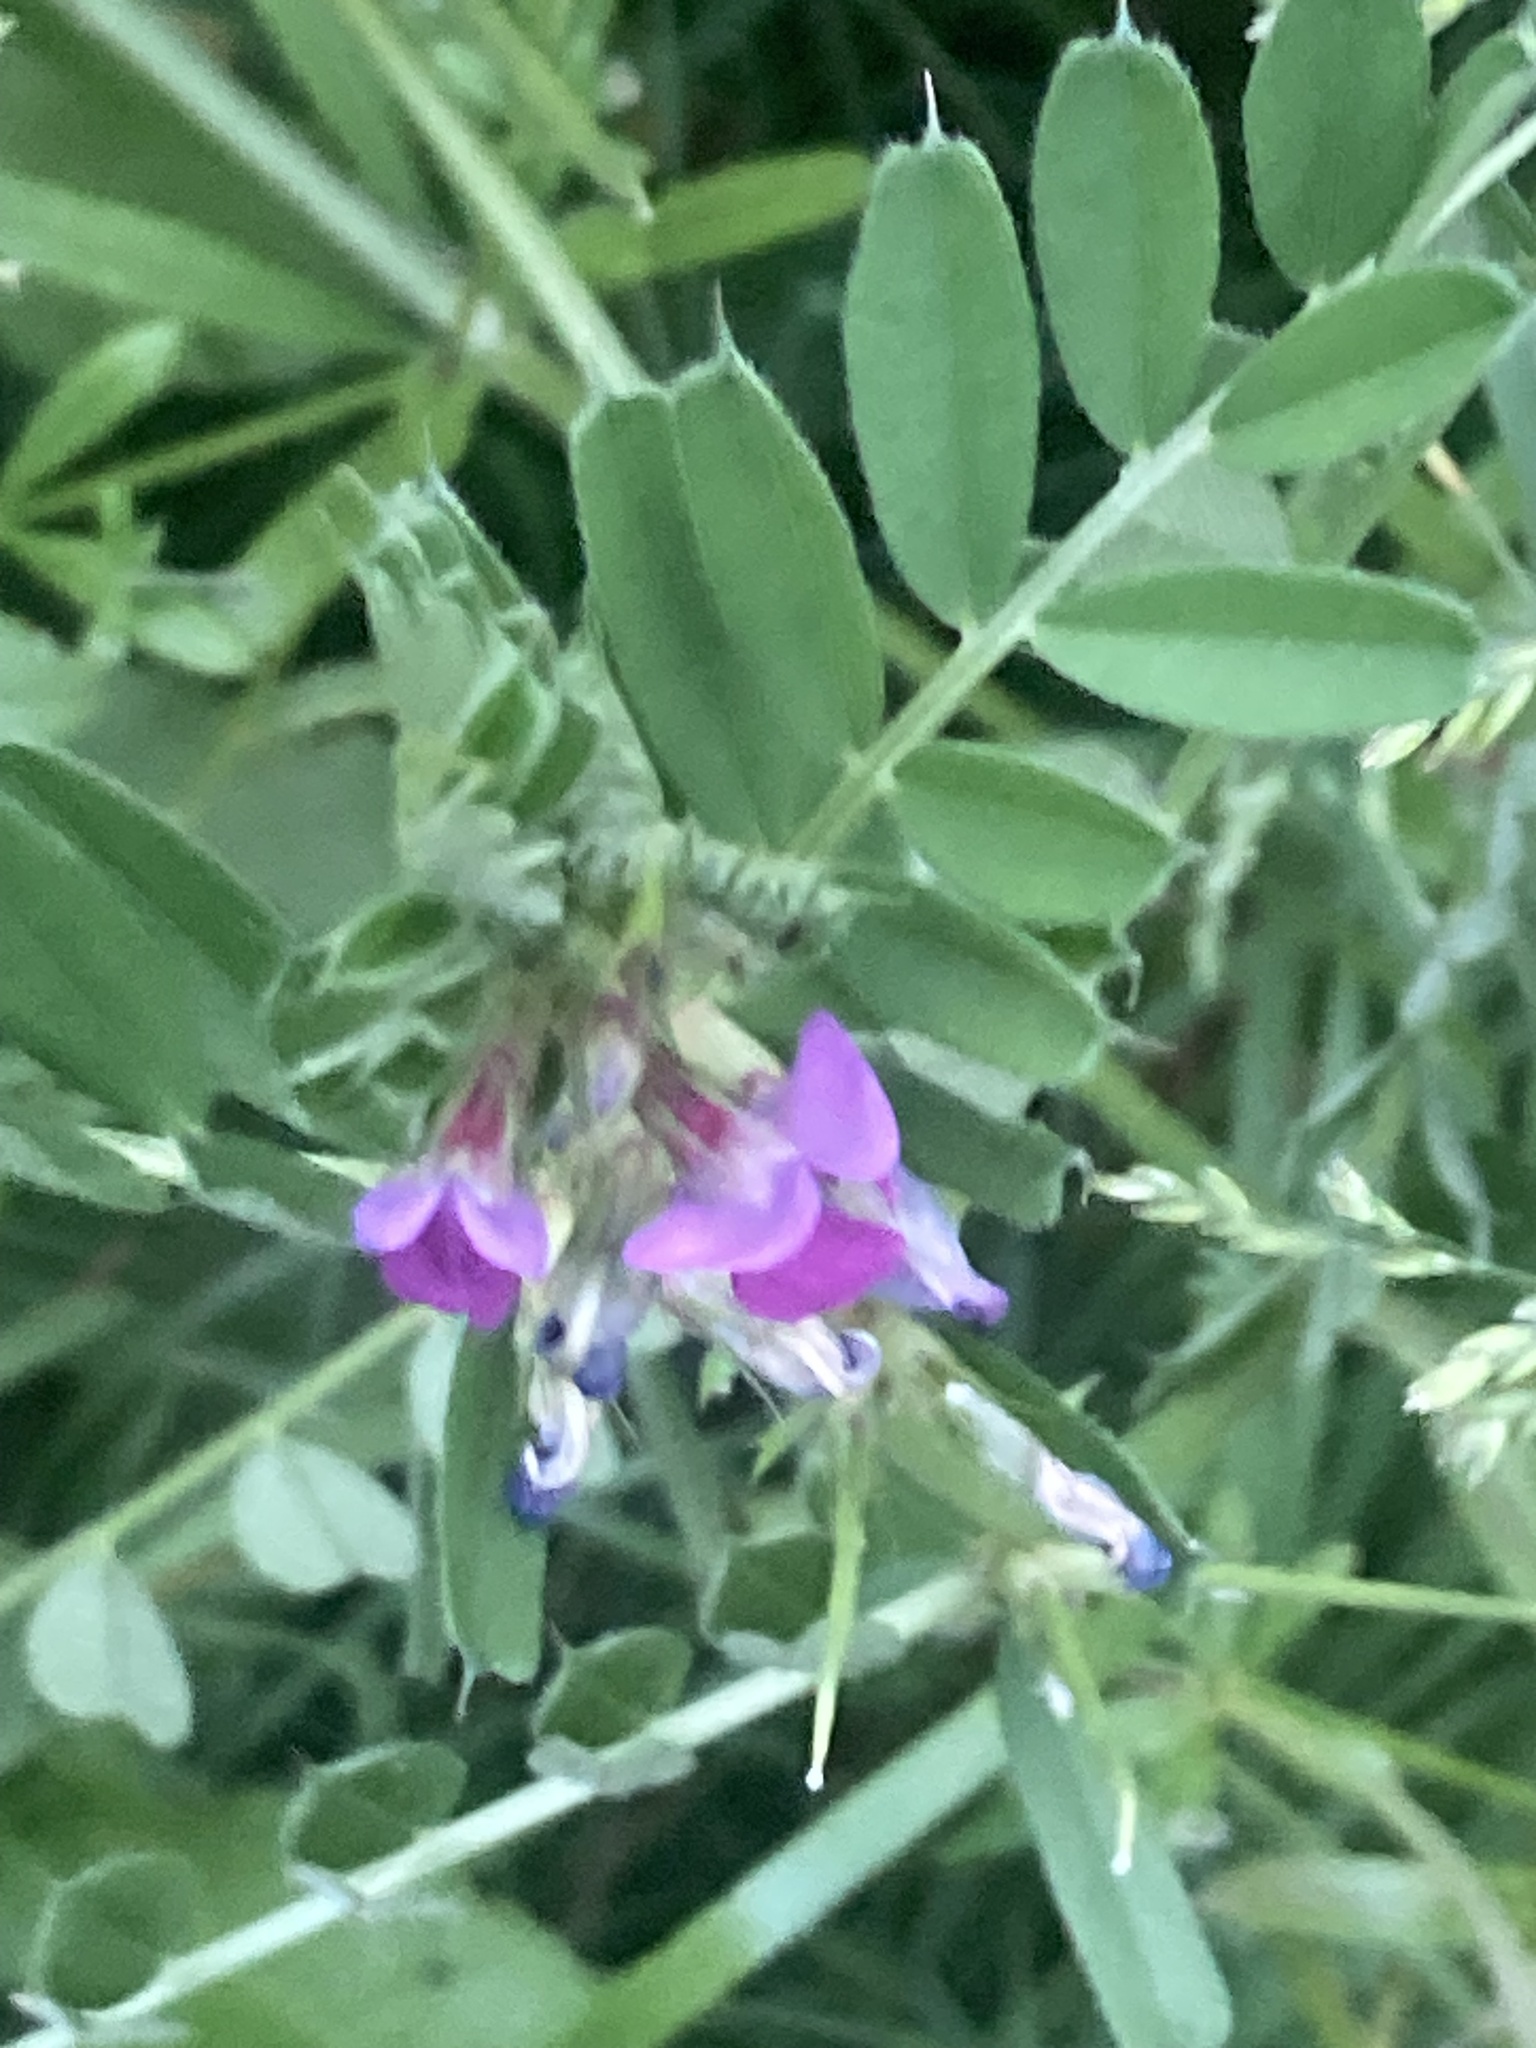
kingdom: Plantae
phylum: Tracheophyta
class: Magnoliopsida
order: Fabales
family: Fabaceae
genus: Vicia
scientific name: Vicia sativa
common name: Garden vetch
